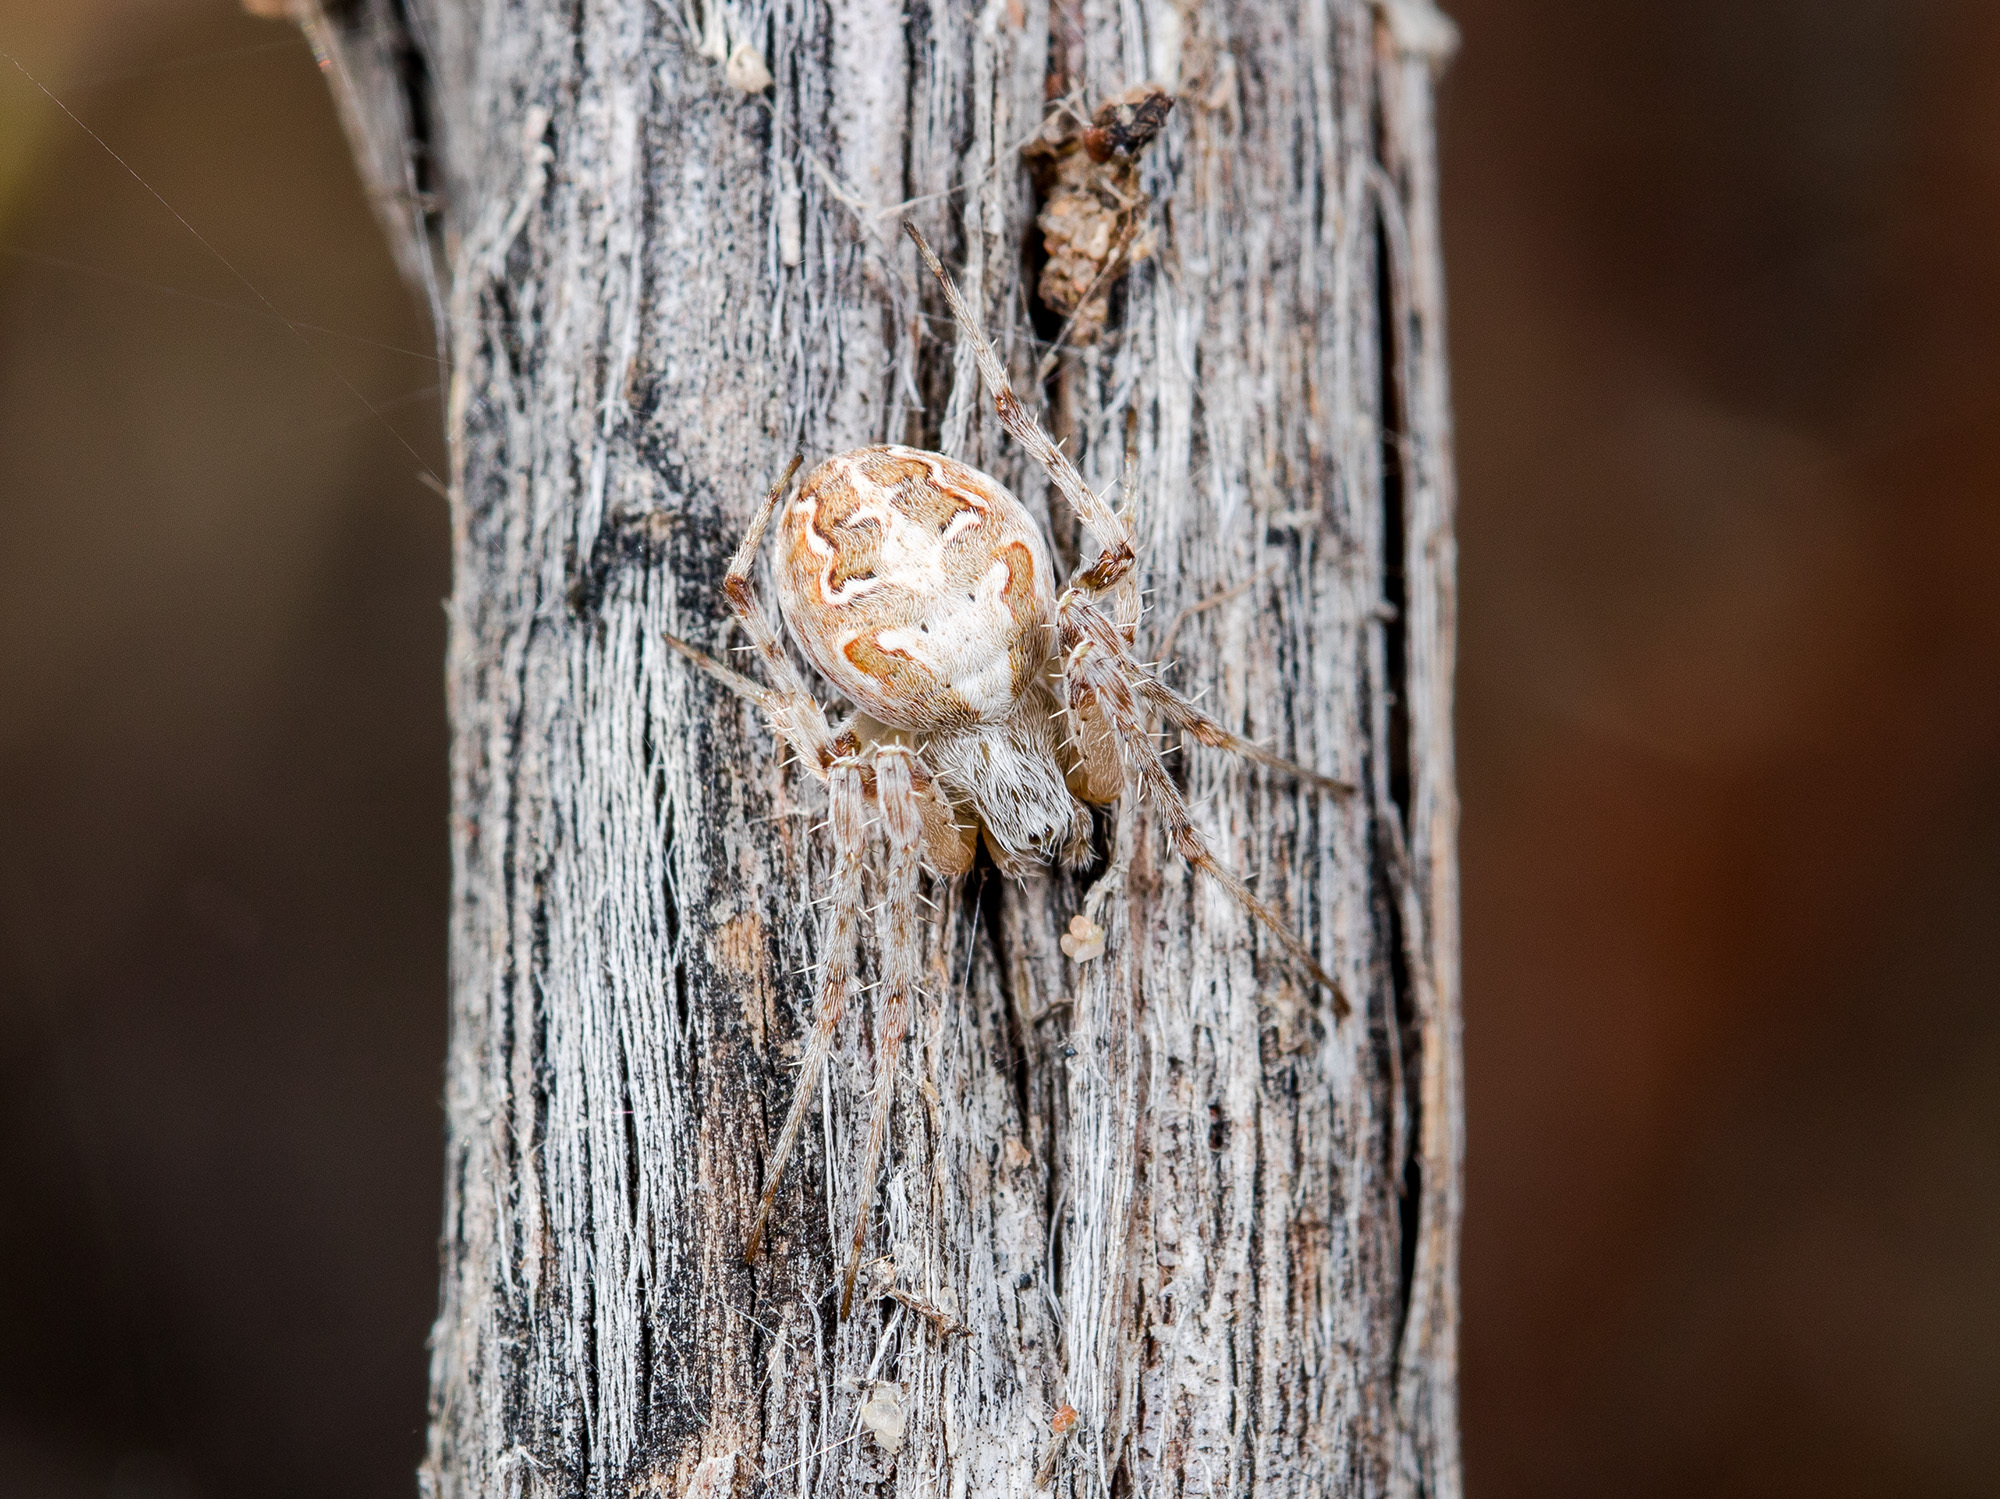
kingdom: Animalia
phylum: Arthropoda
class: Arachnida
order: Araneae
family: Araneidae
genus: Araneus
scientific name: Araneus pallasi
